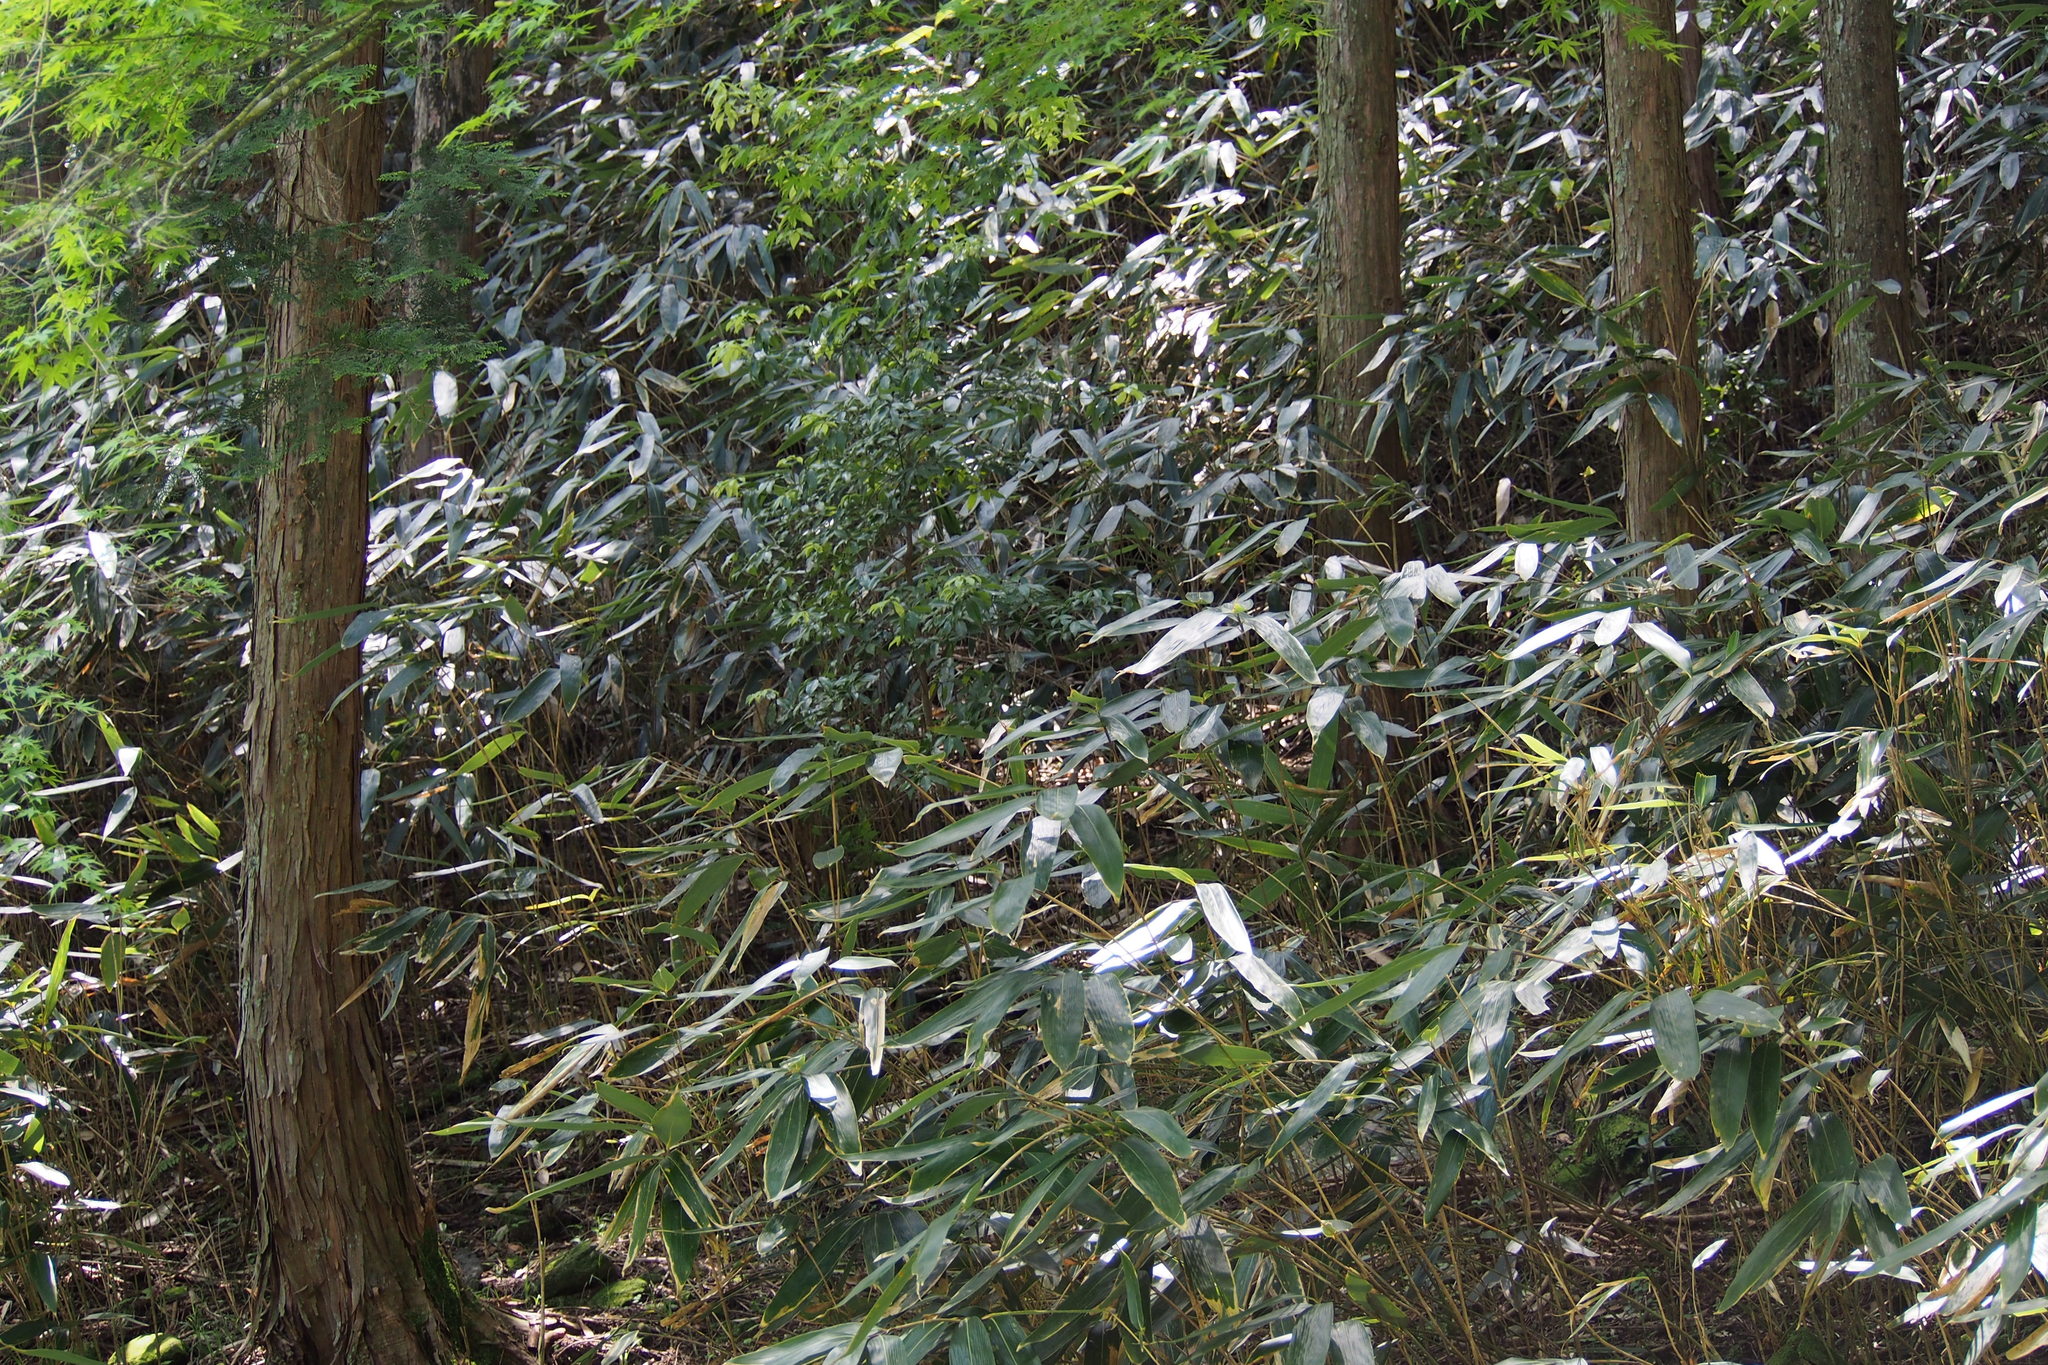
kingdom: Plantae
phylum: Tracheophyta
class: Liliopsida
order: Poales
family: Poaceae
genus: Sasamorpha
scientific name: Sasamorpha borealis
